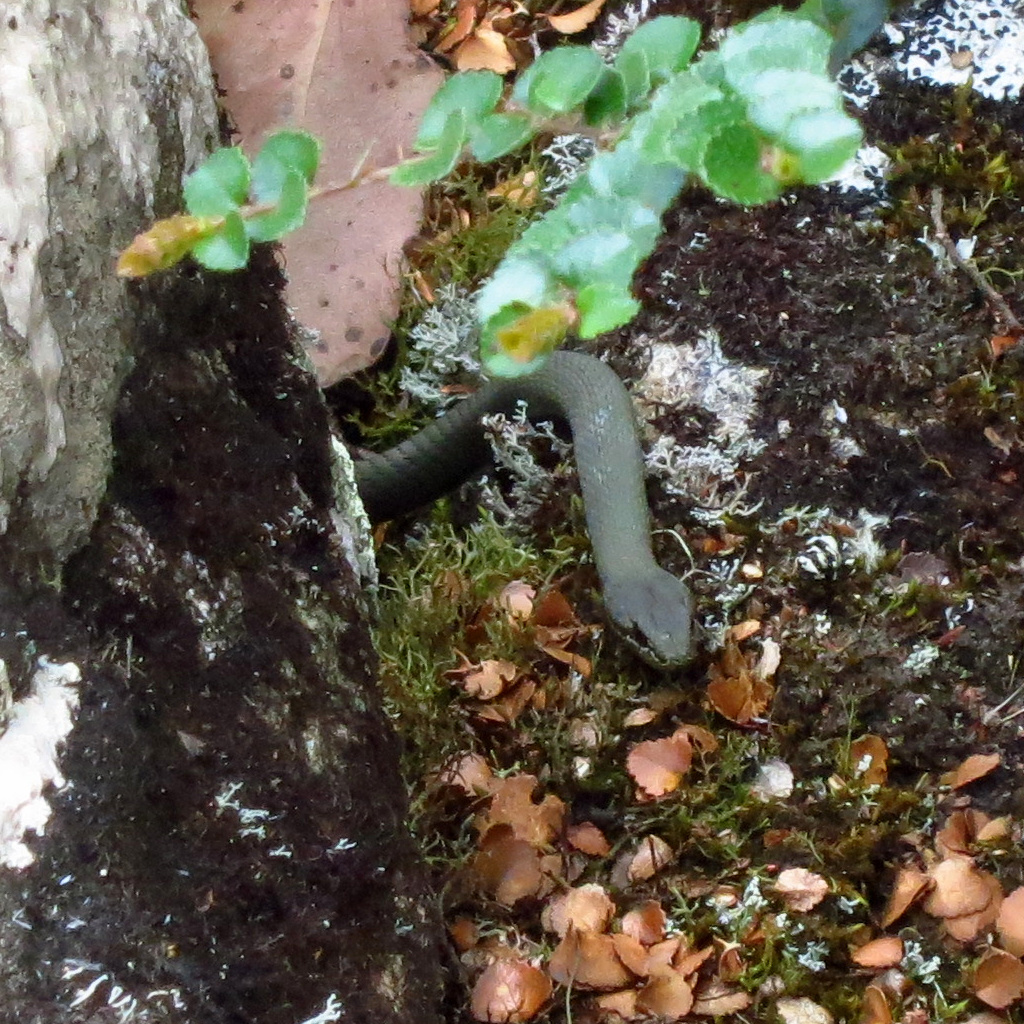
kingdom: Animalia
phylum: Chordata
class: Squamata
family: Elapidae
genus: Drysdalia
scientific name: Drysdalia coronoides
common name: White-lipped snake
